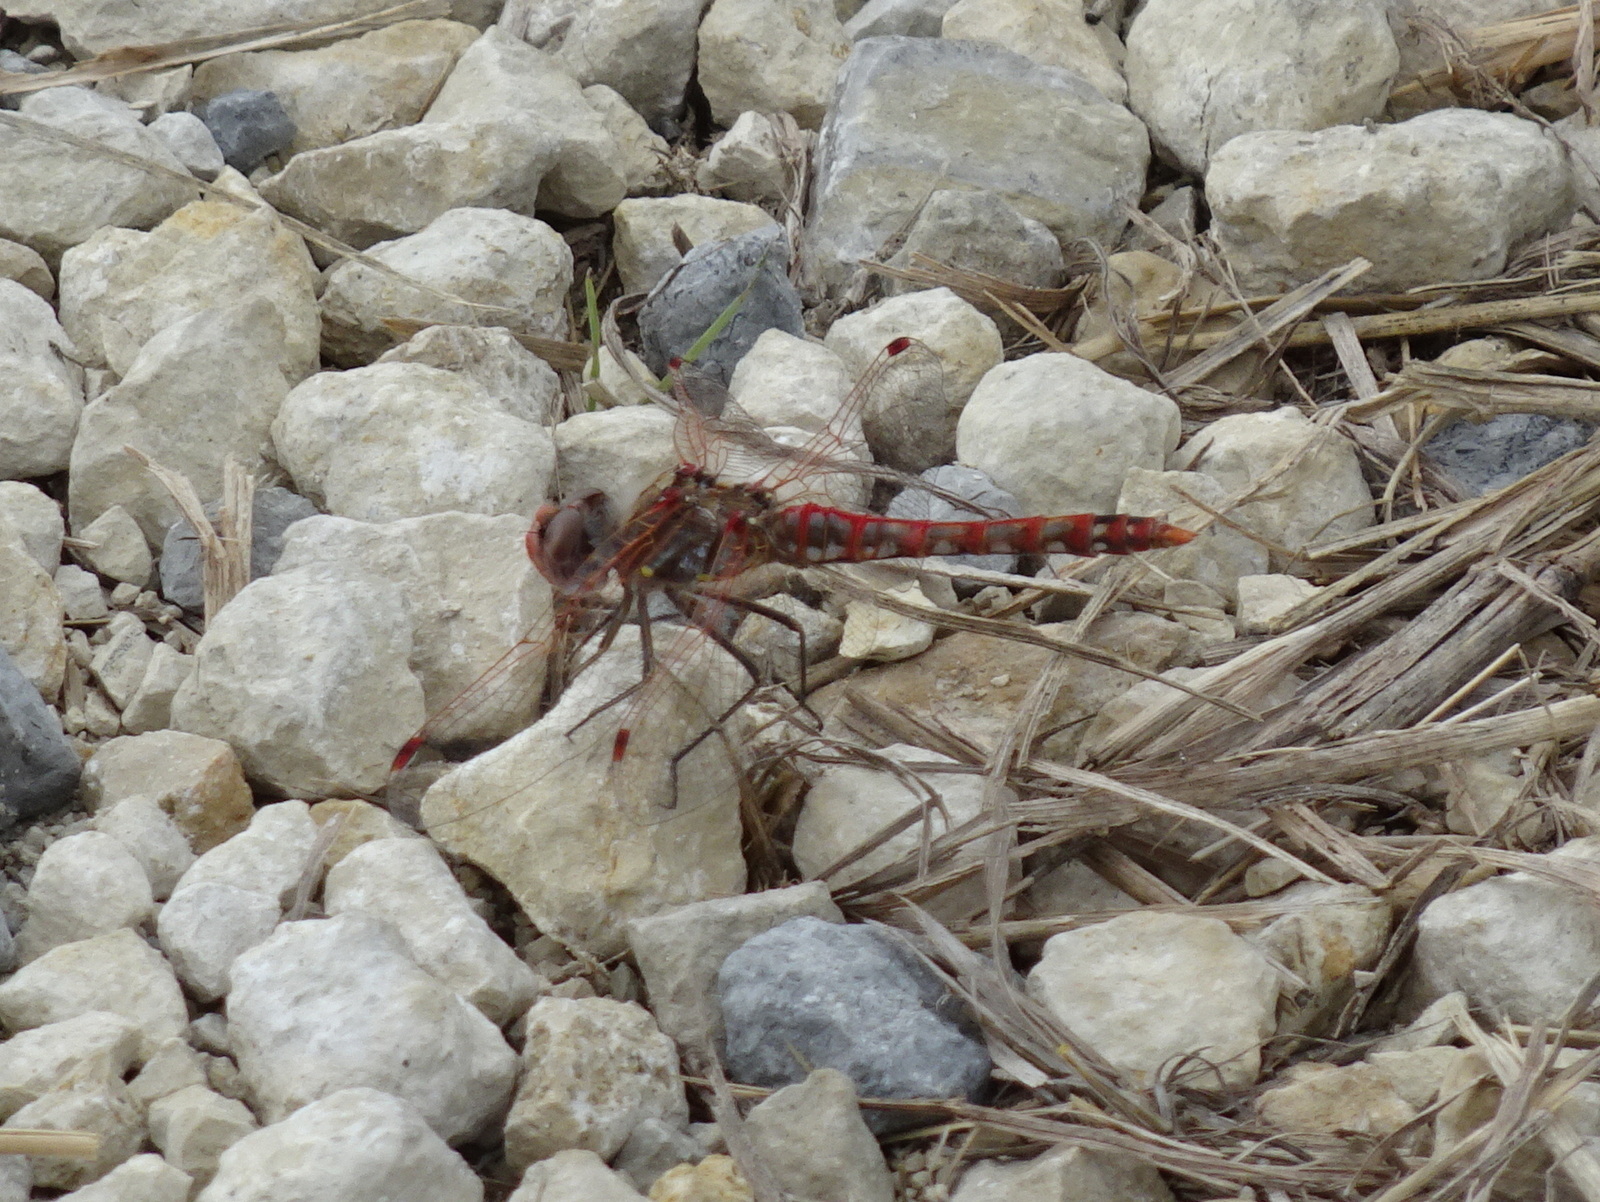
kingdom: Animalia
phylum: Arthropoda
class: Insecta
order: Odonata
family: Libellulidae
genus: Sympetrum
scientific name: Sympetrum corruptum
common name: Variegated meadowhawk
